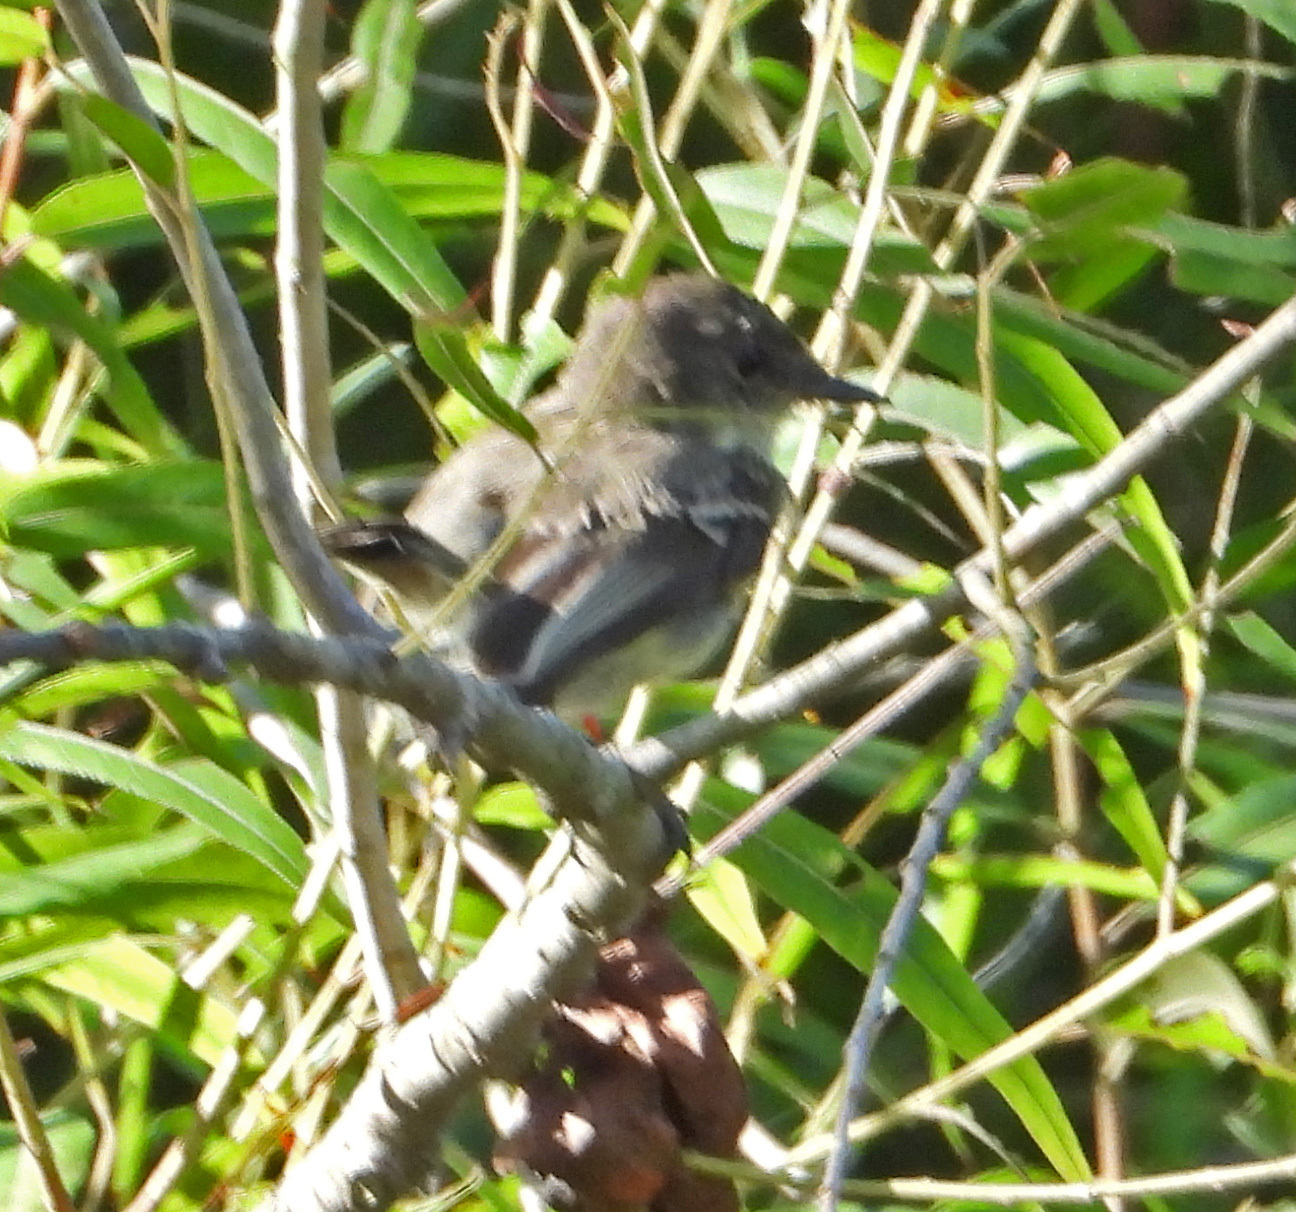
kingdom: Animalia
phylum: Chordata
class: Aves
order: Passeriformes
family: Tyrannidae
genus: Sayornis
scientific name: Sayornis phoebe
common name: Eastern phoebe
